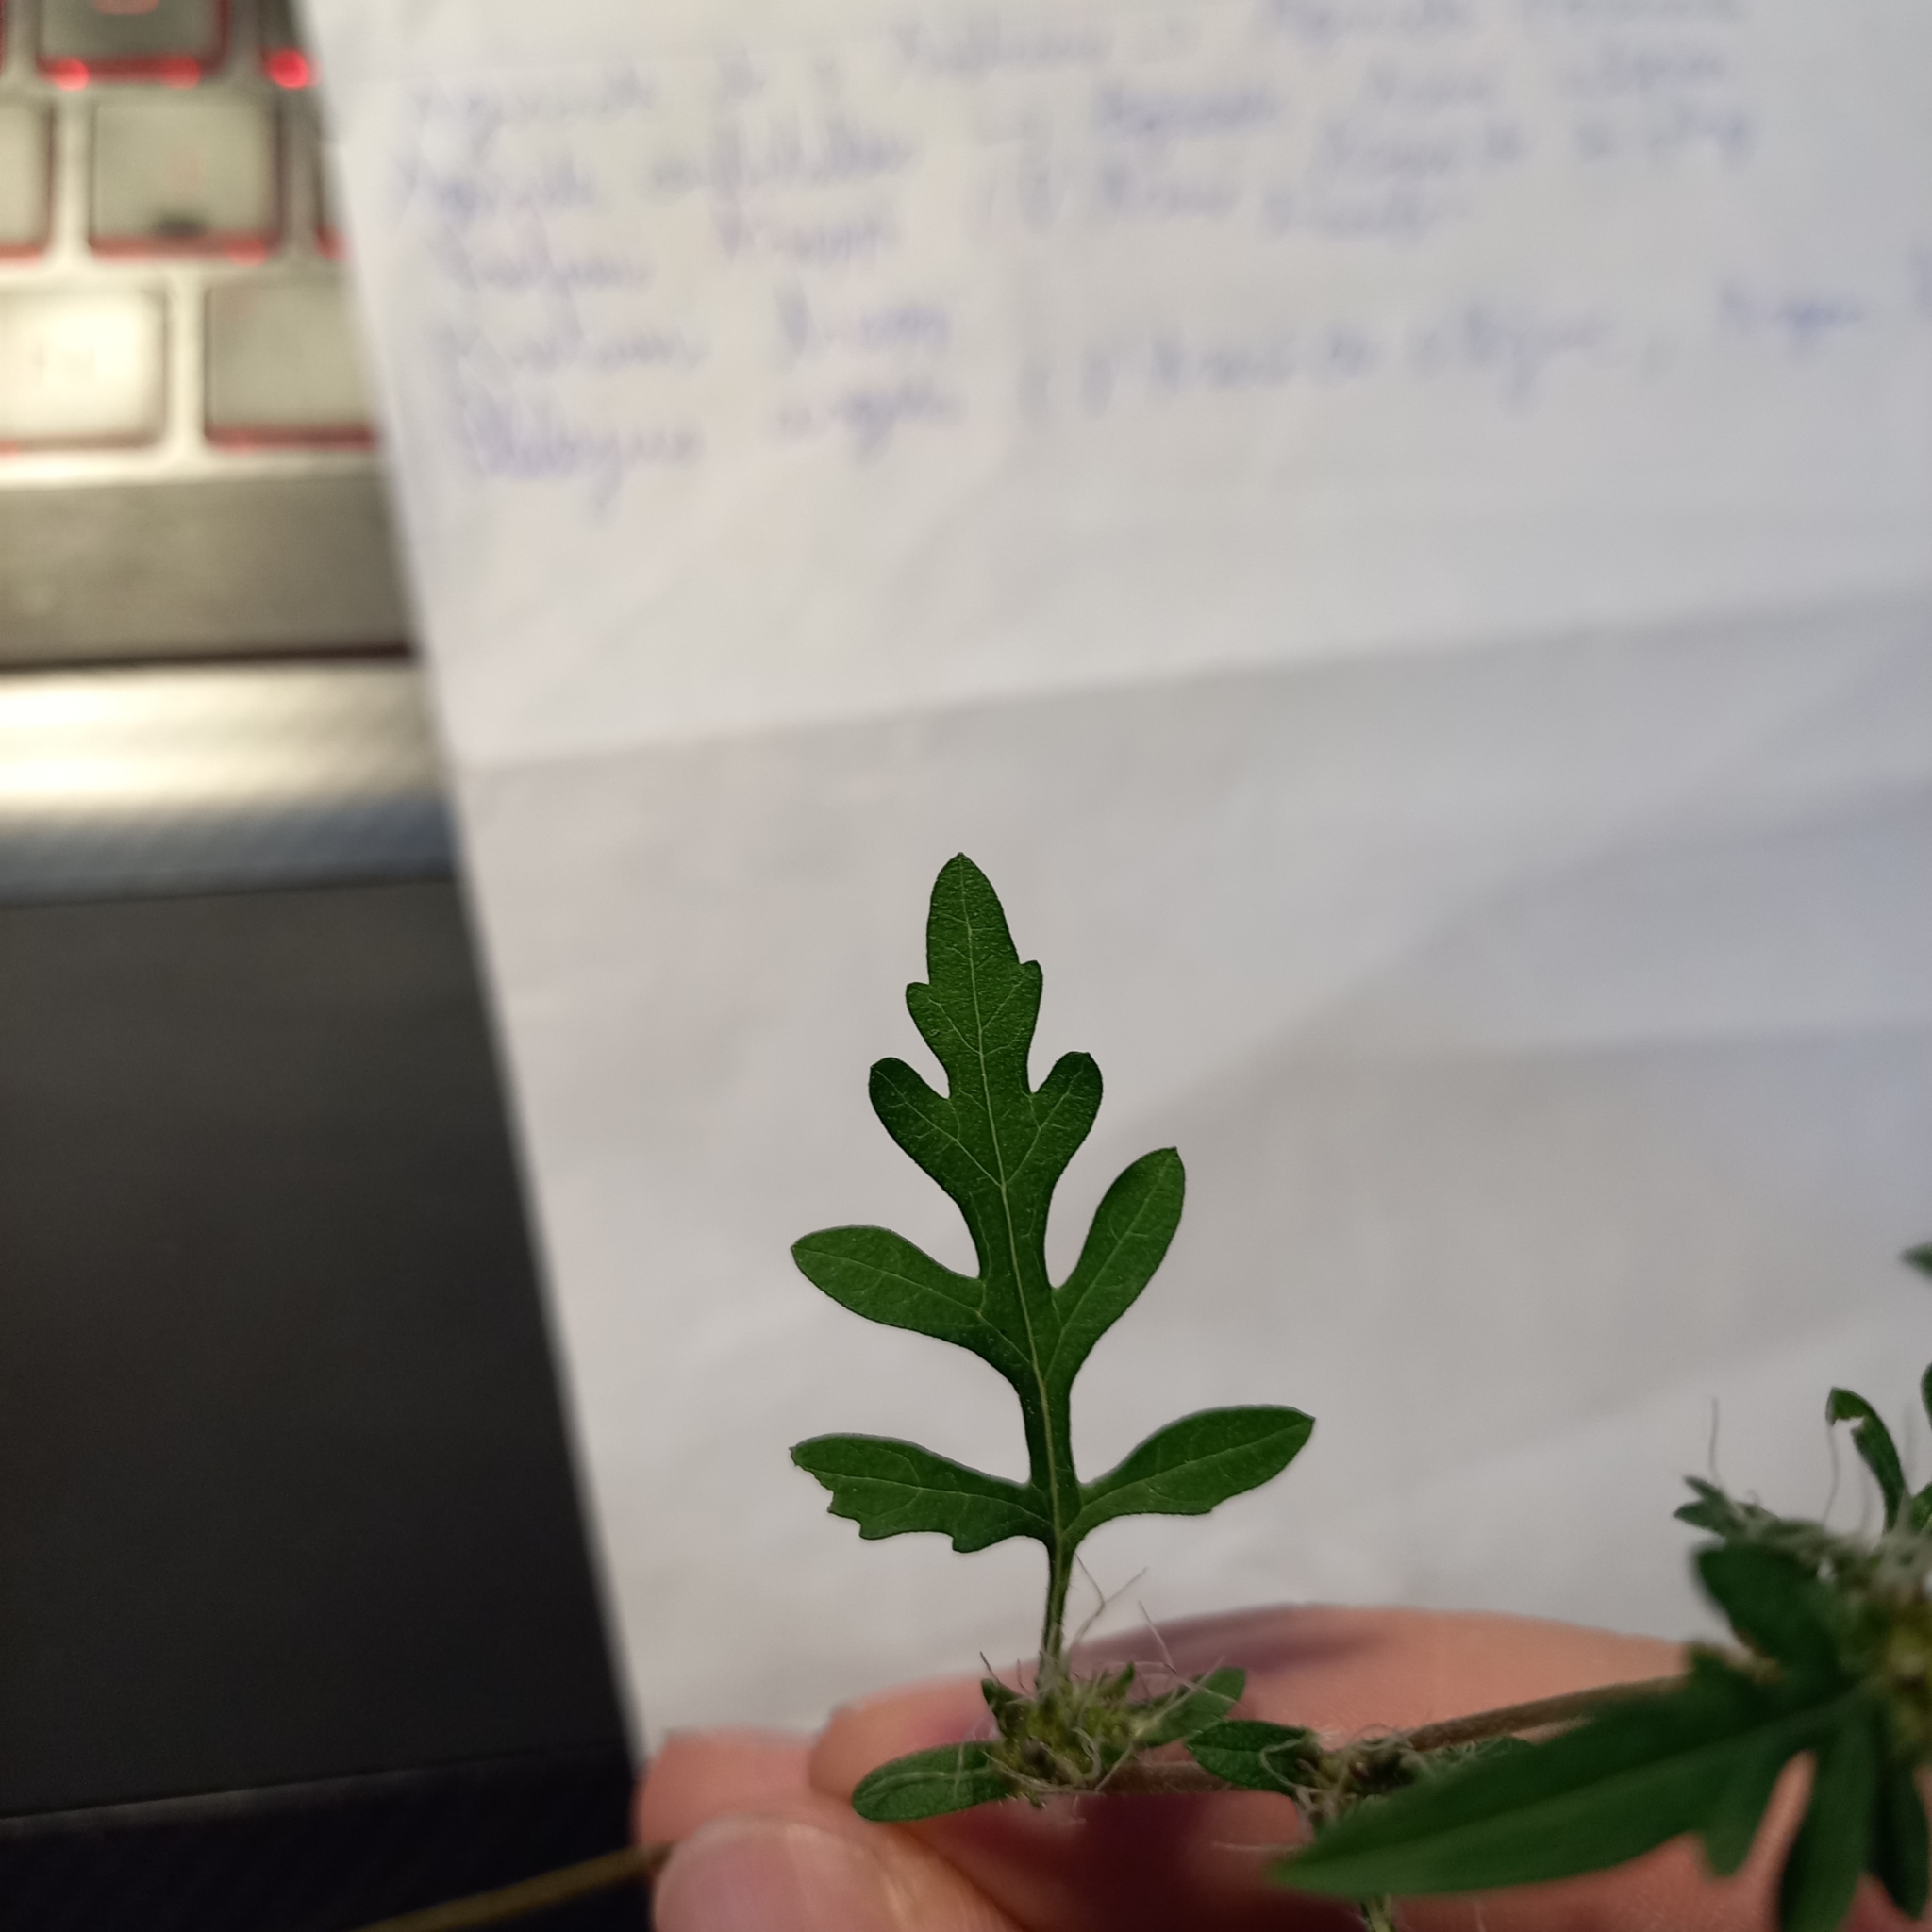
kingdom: Plantae
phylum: Tracheophyta
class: Magnoliopsida
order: Asterales
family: Asteraceae
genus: Ambrosia
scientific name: Ambrosia artemisiifolia
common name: Annual ragweed
